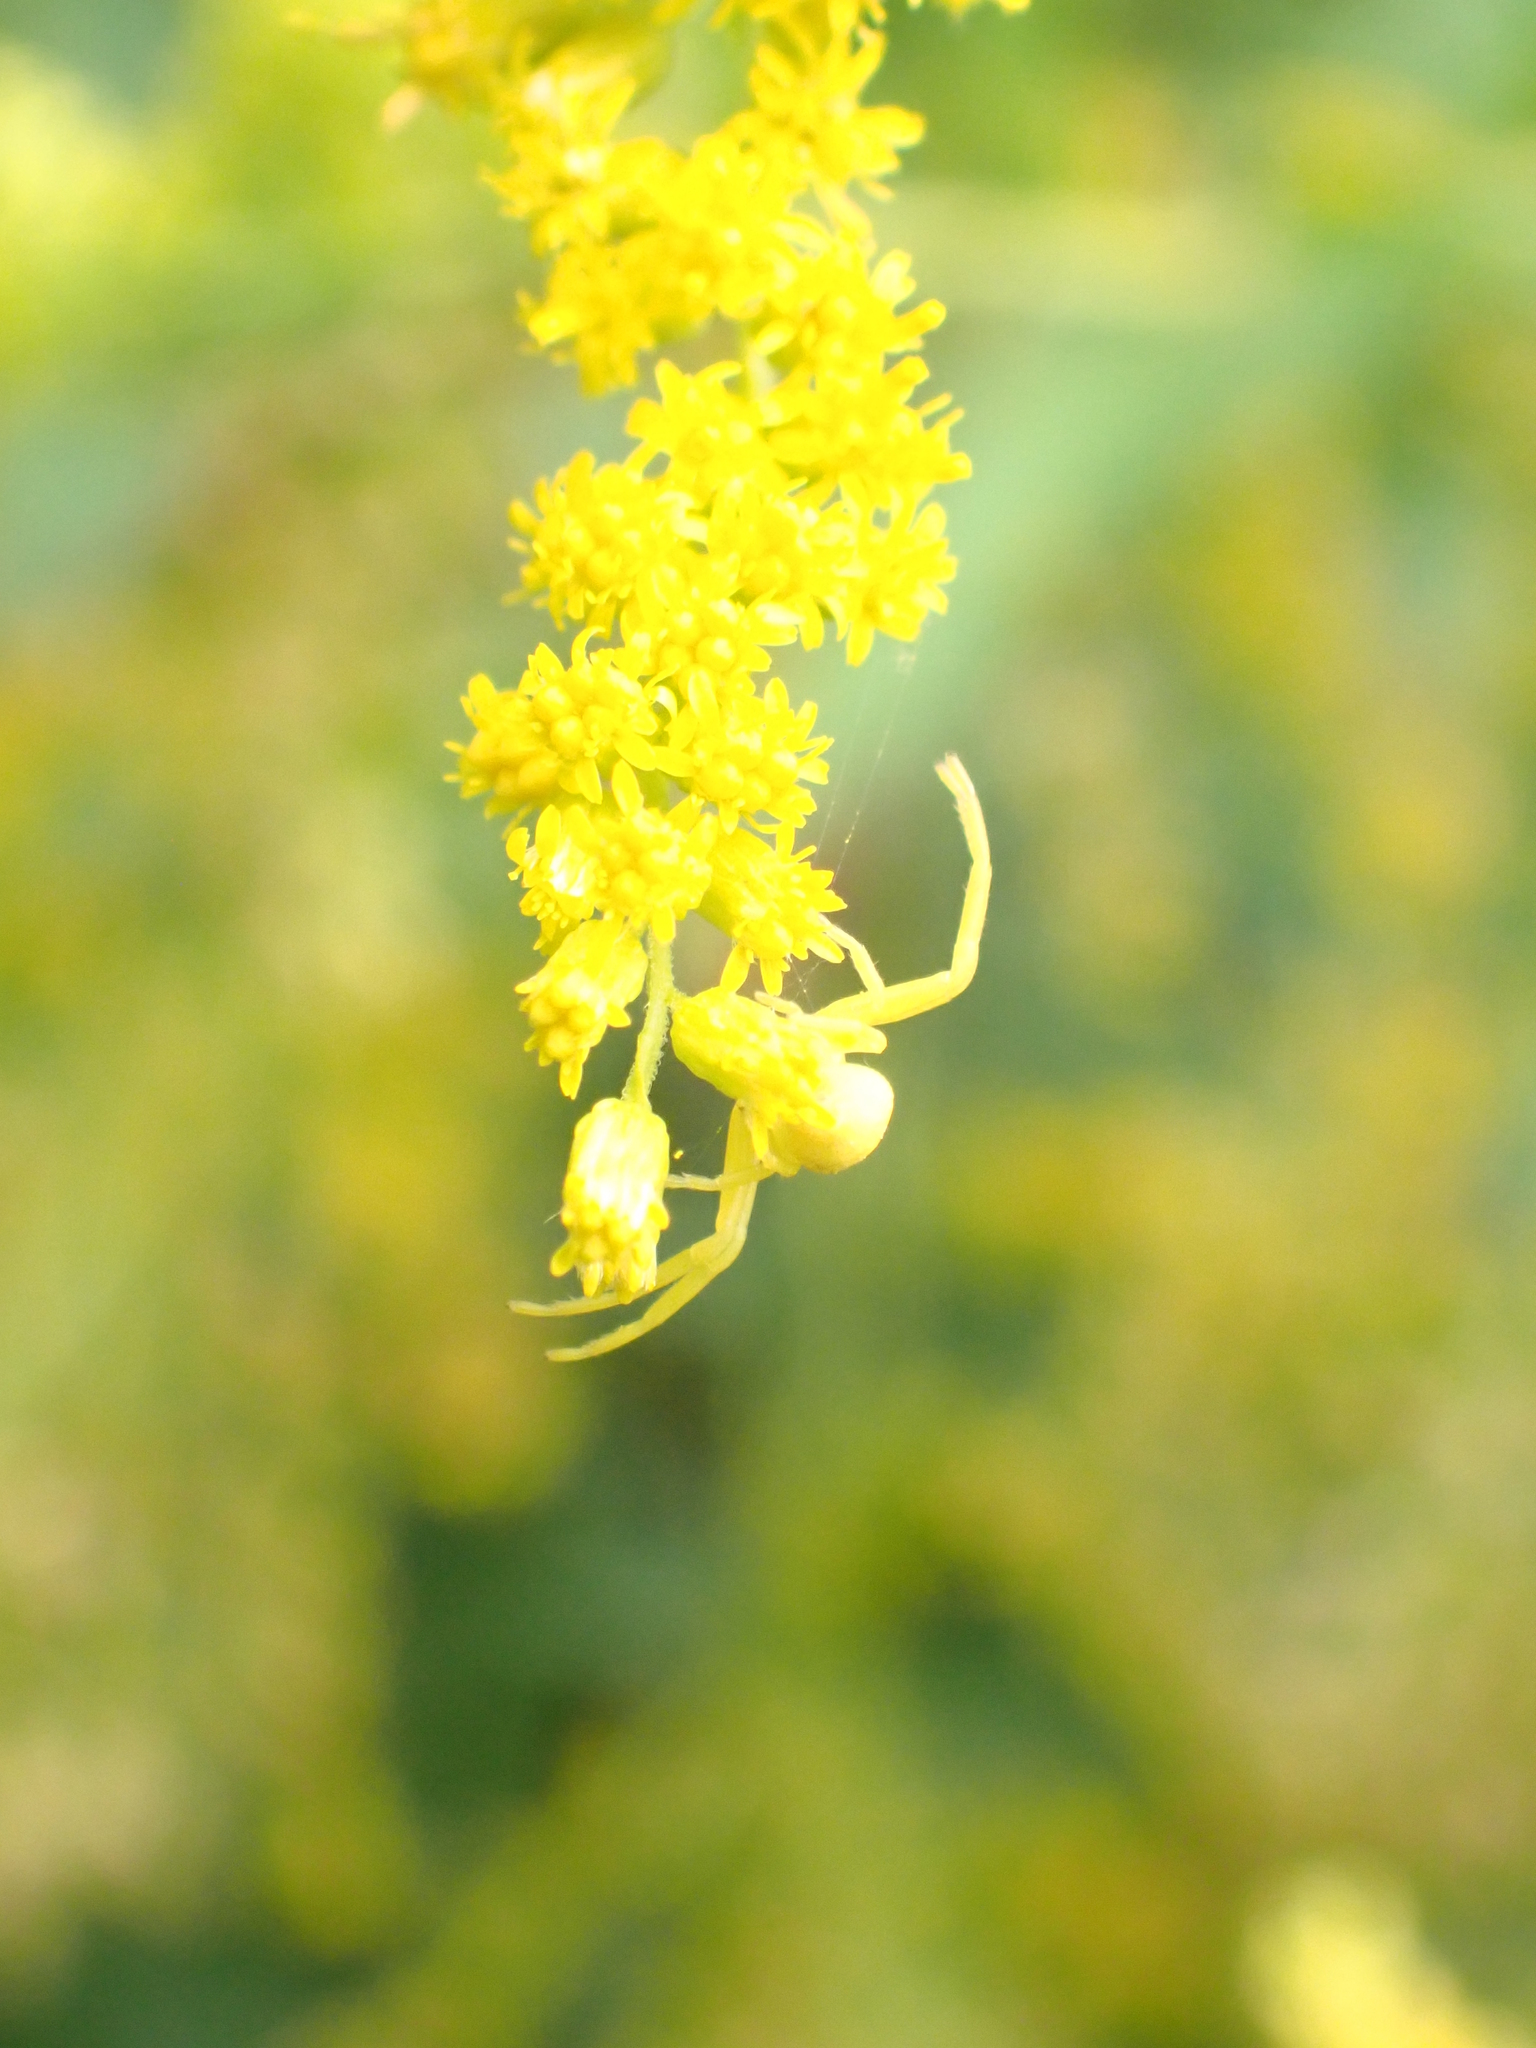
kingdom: Animalia
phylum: Arthropoda
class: Arachnida
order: Araneae
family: Thomisidae
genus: Misumena
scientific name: Misumena vatia
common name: Goldenrod crab spider
